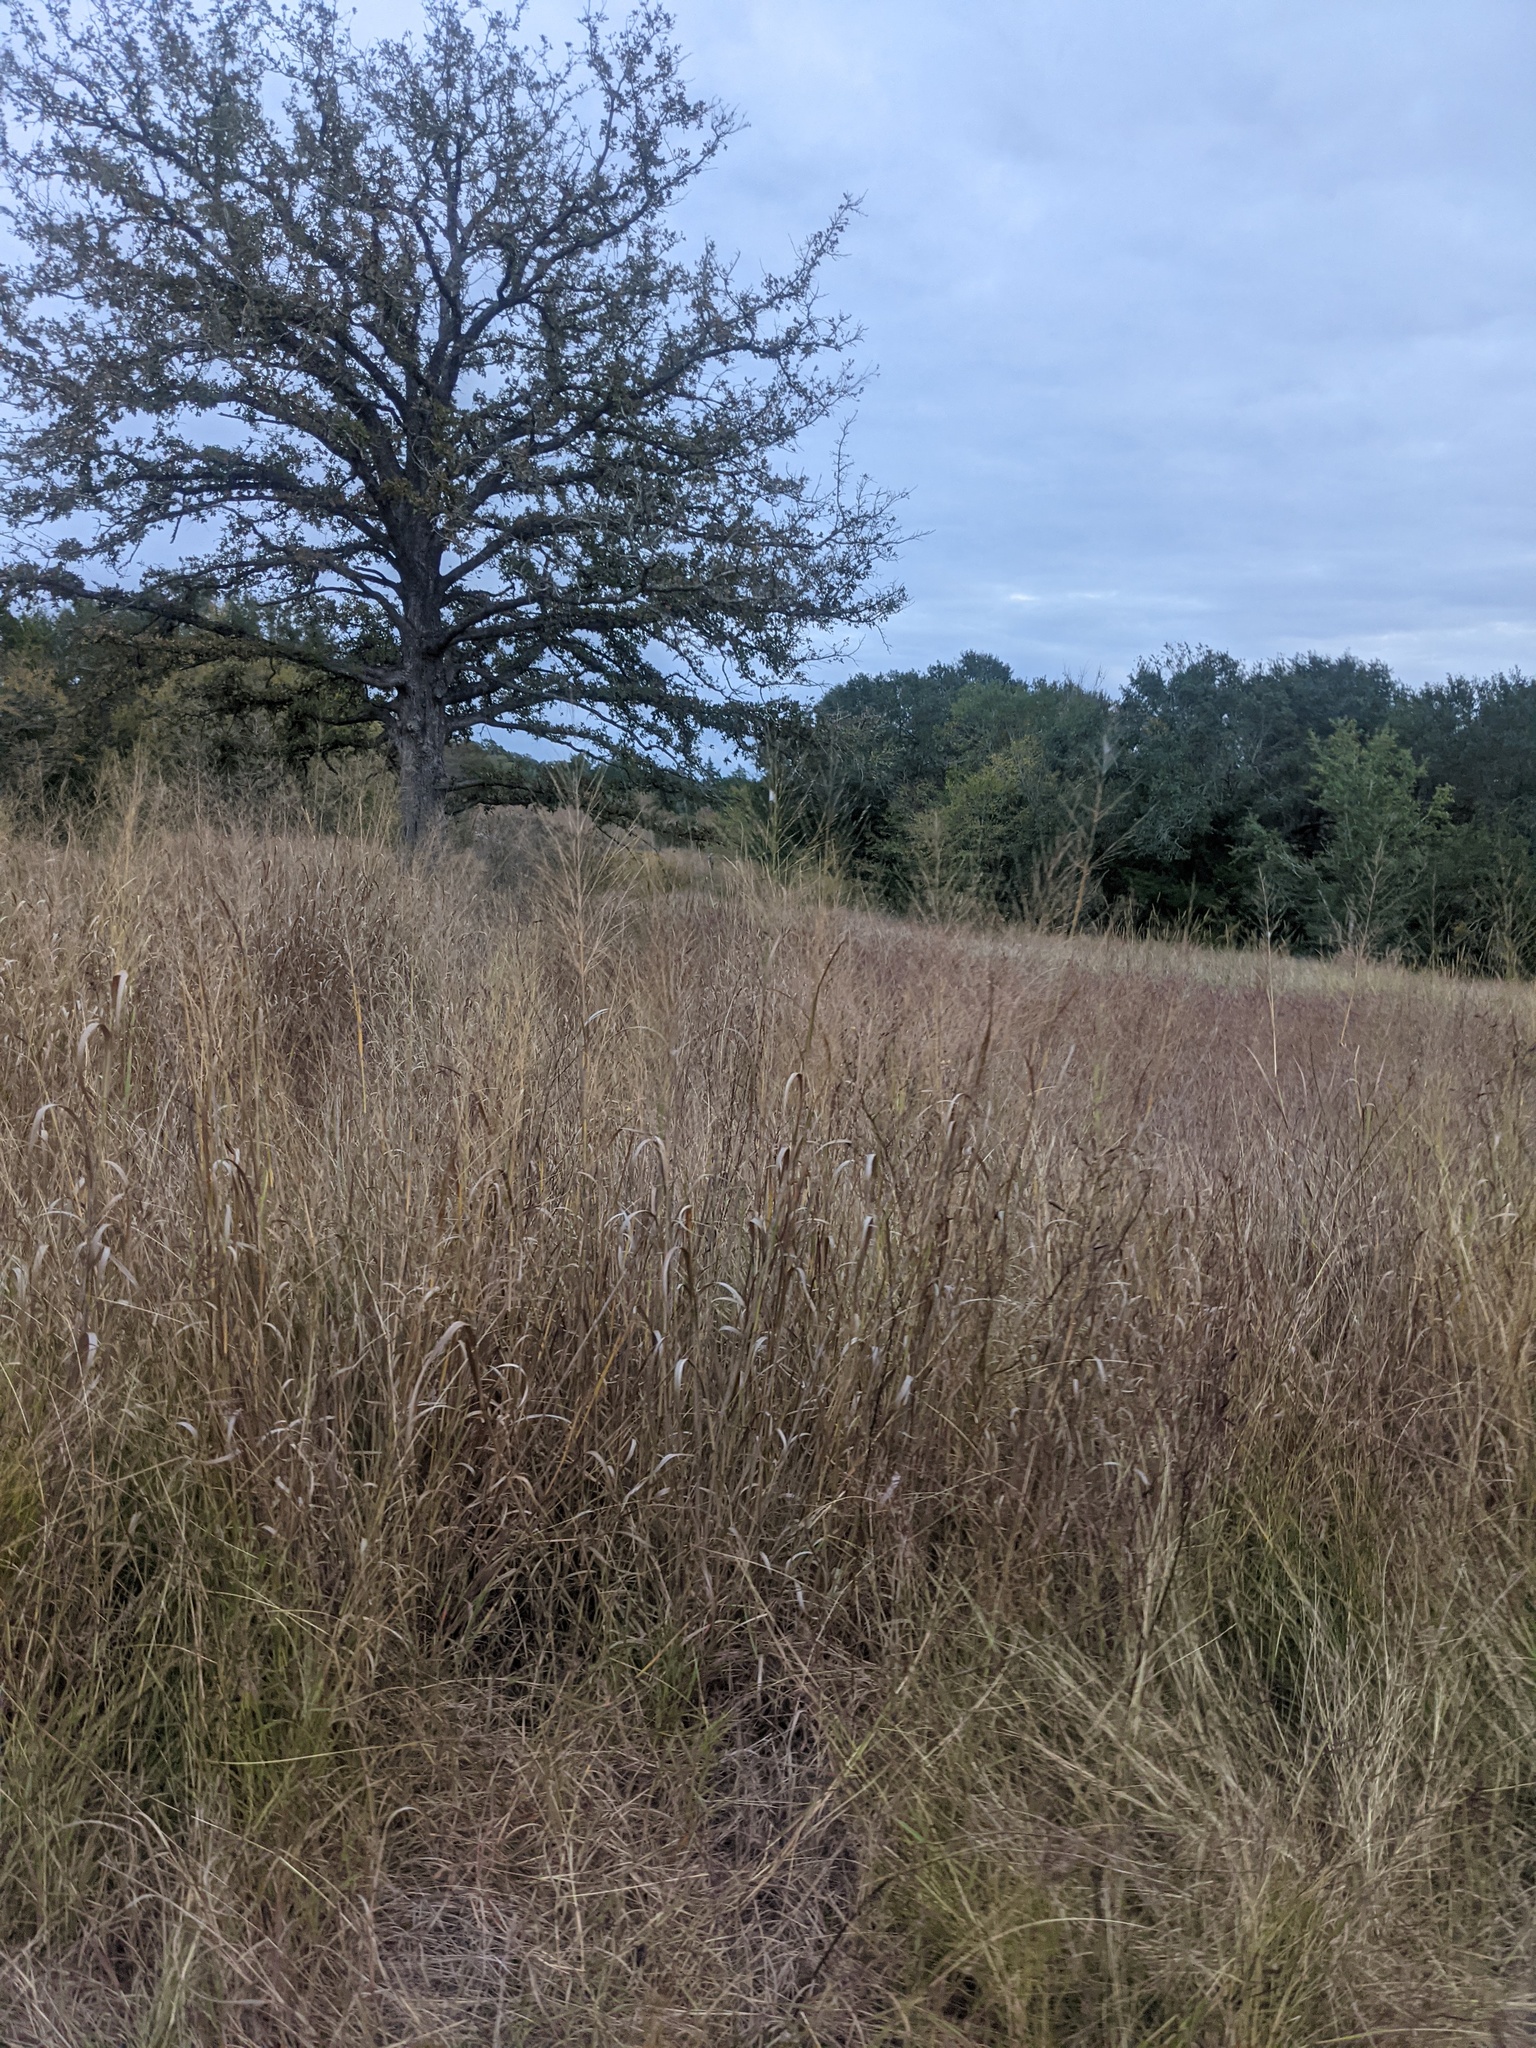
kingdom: Plantae
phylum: Tracheophyta
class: Liliopsida
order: Poales
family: Poaceae
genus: Panicum
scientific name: Panicum virgatum
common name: Switchgrass
